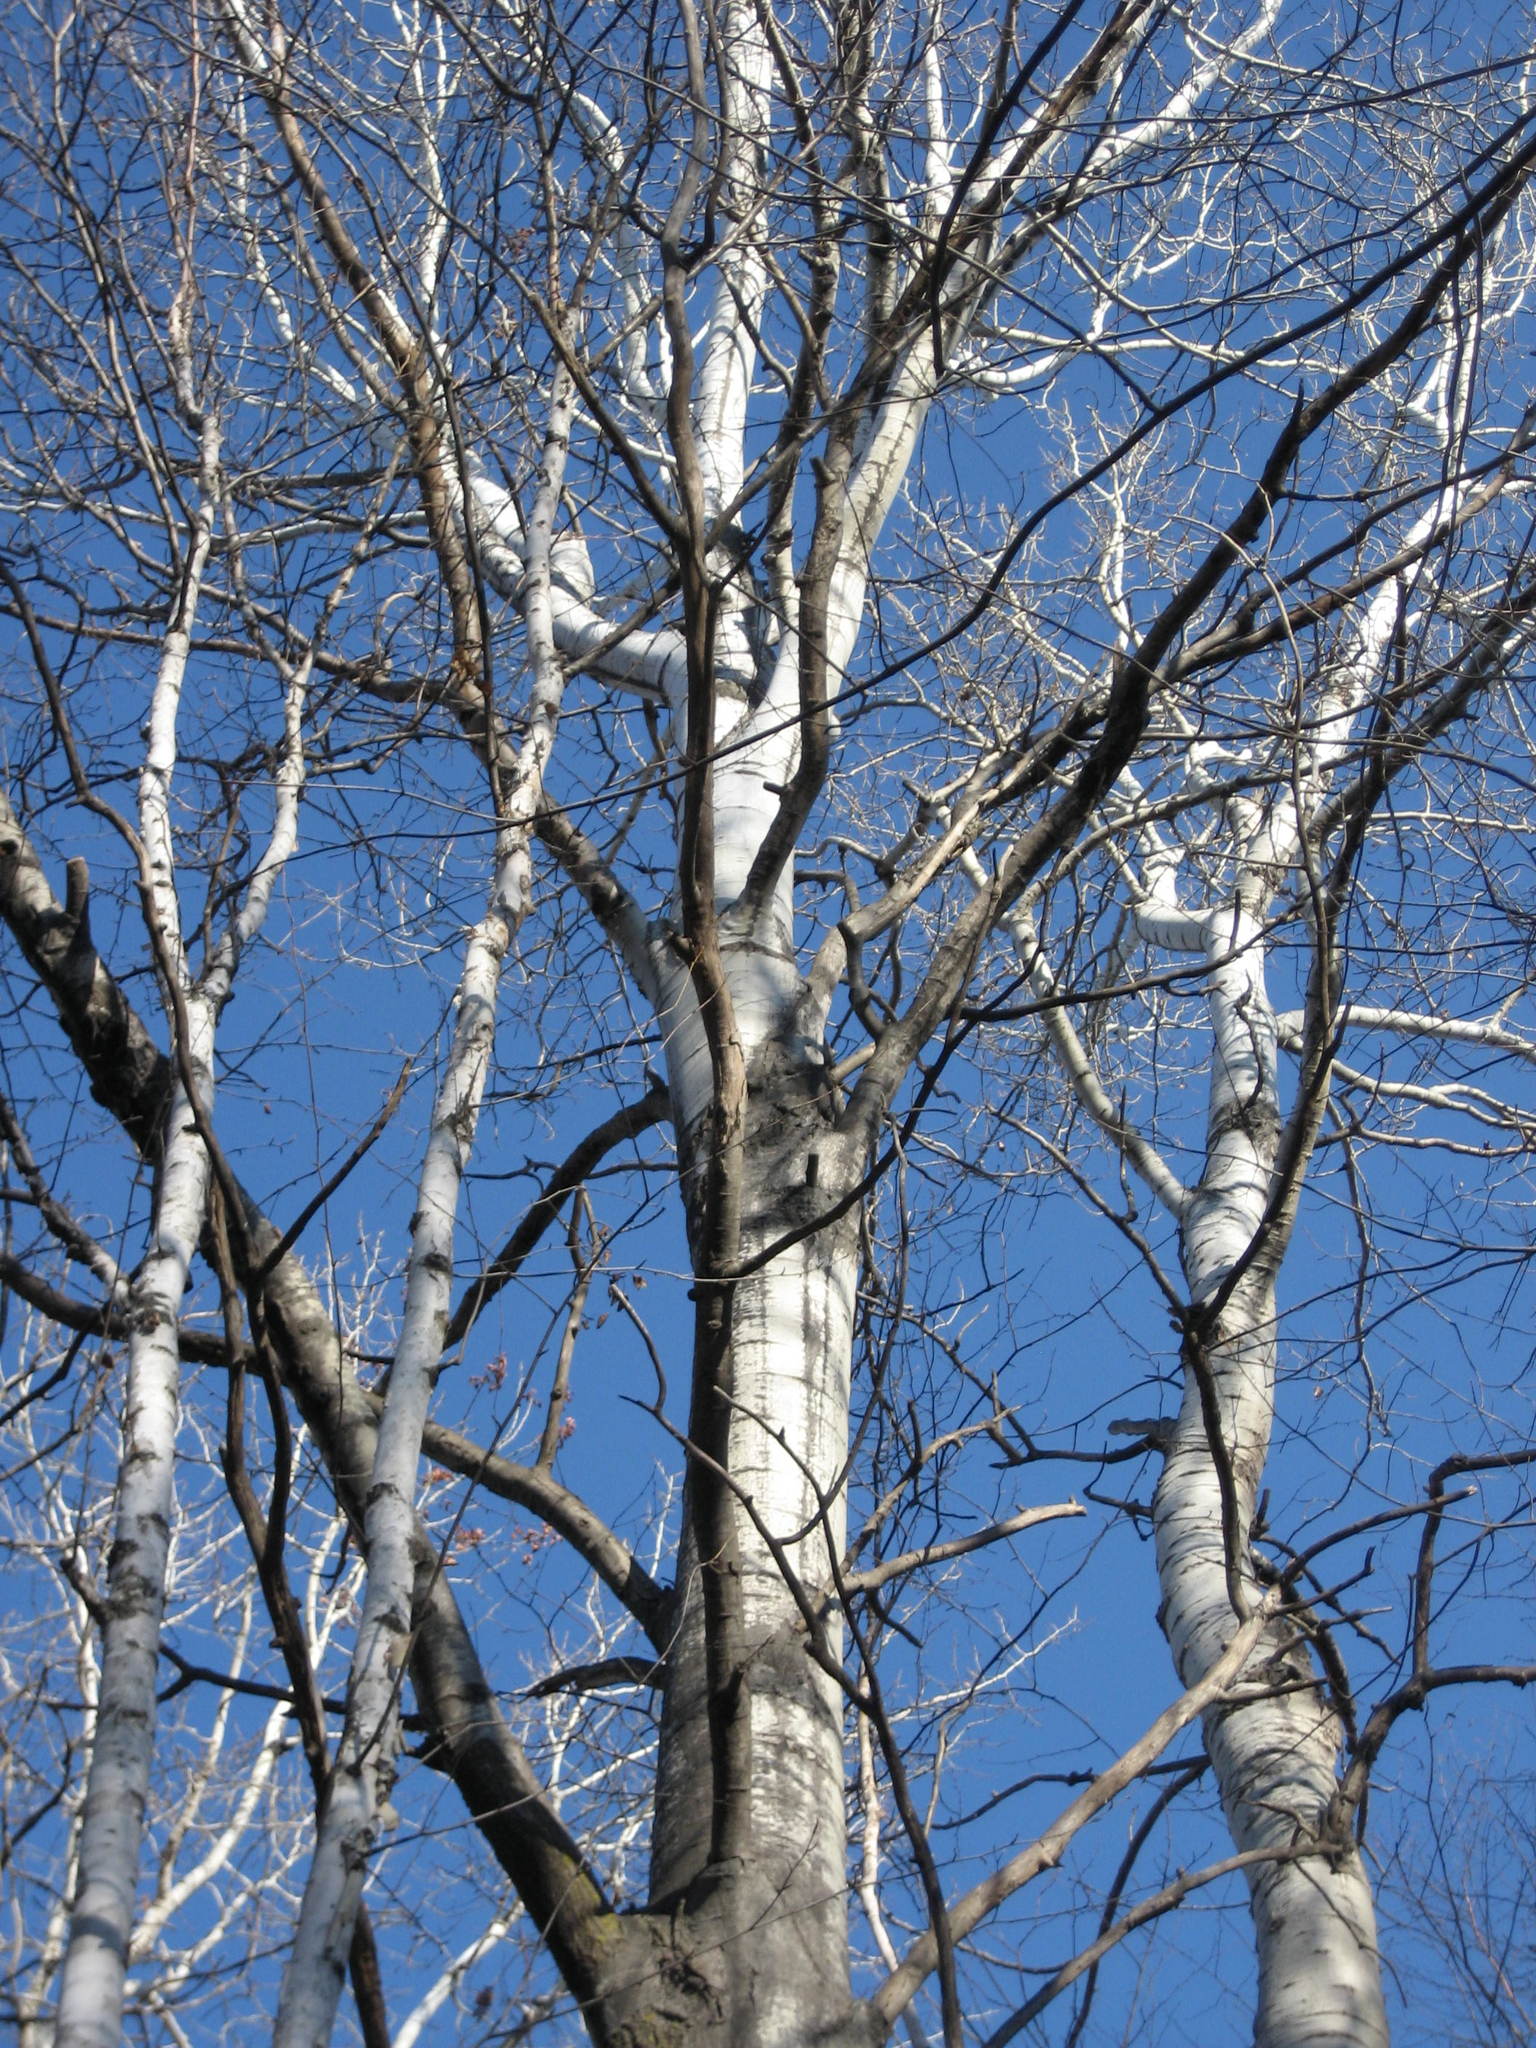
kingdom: Plantae
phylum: Tracheophyta
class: Magnoliopsida
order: Malpighiales
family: Salicaceae
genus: Populus
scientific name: Populus tremuloides
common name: Quaking aspen
